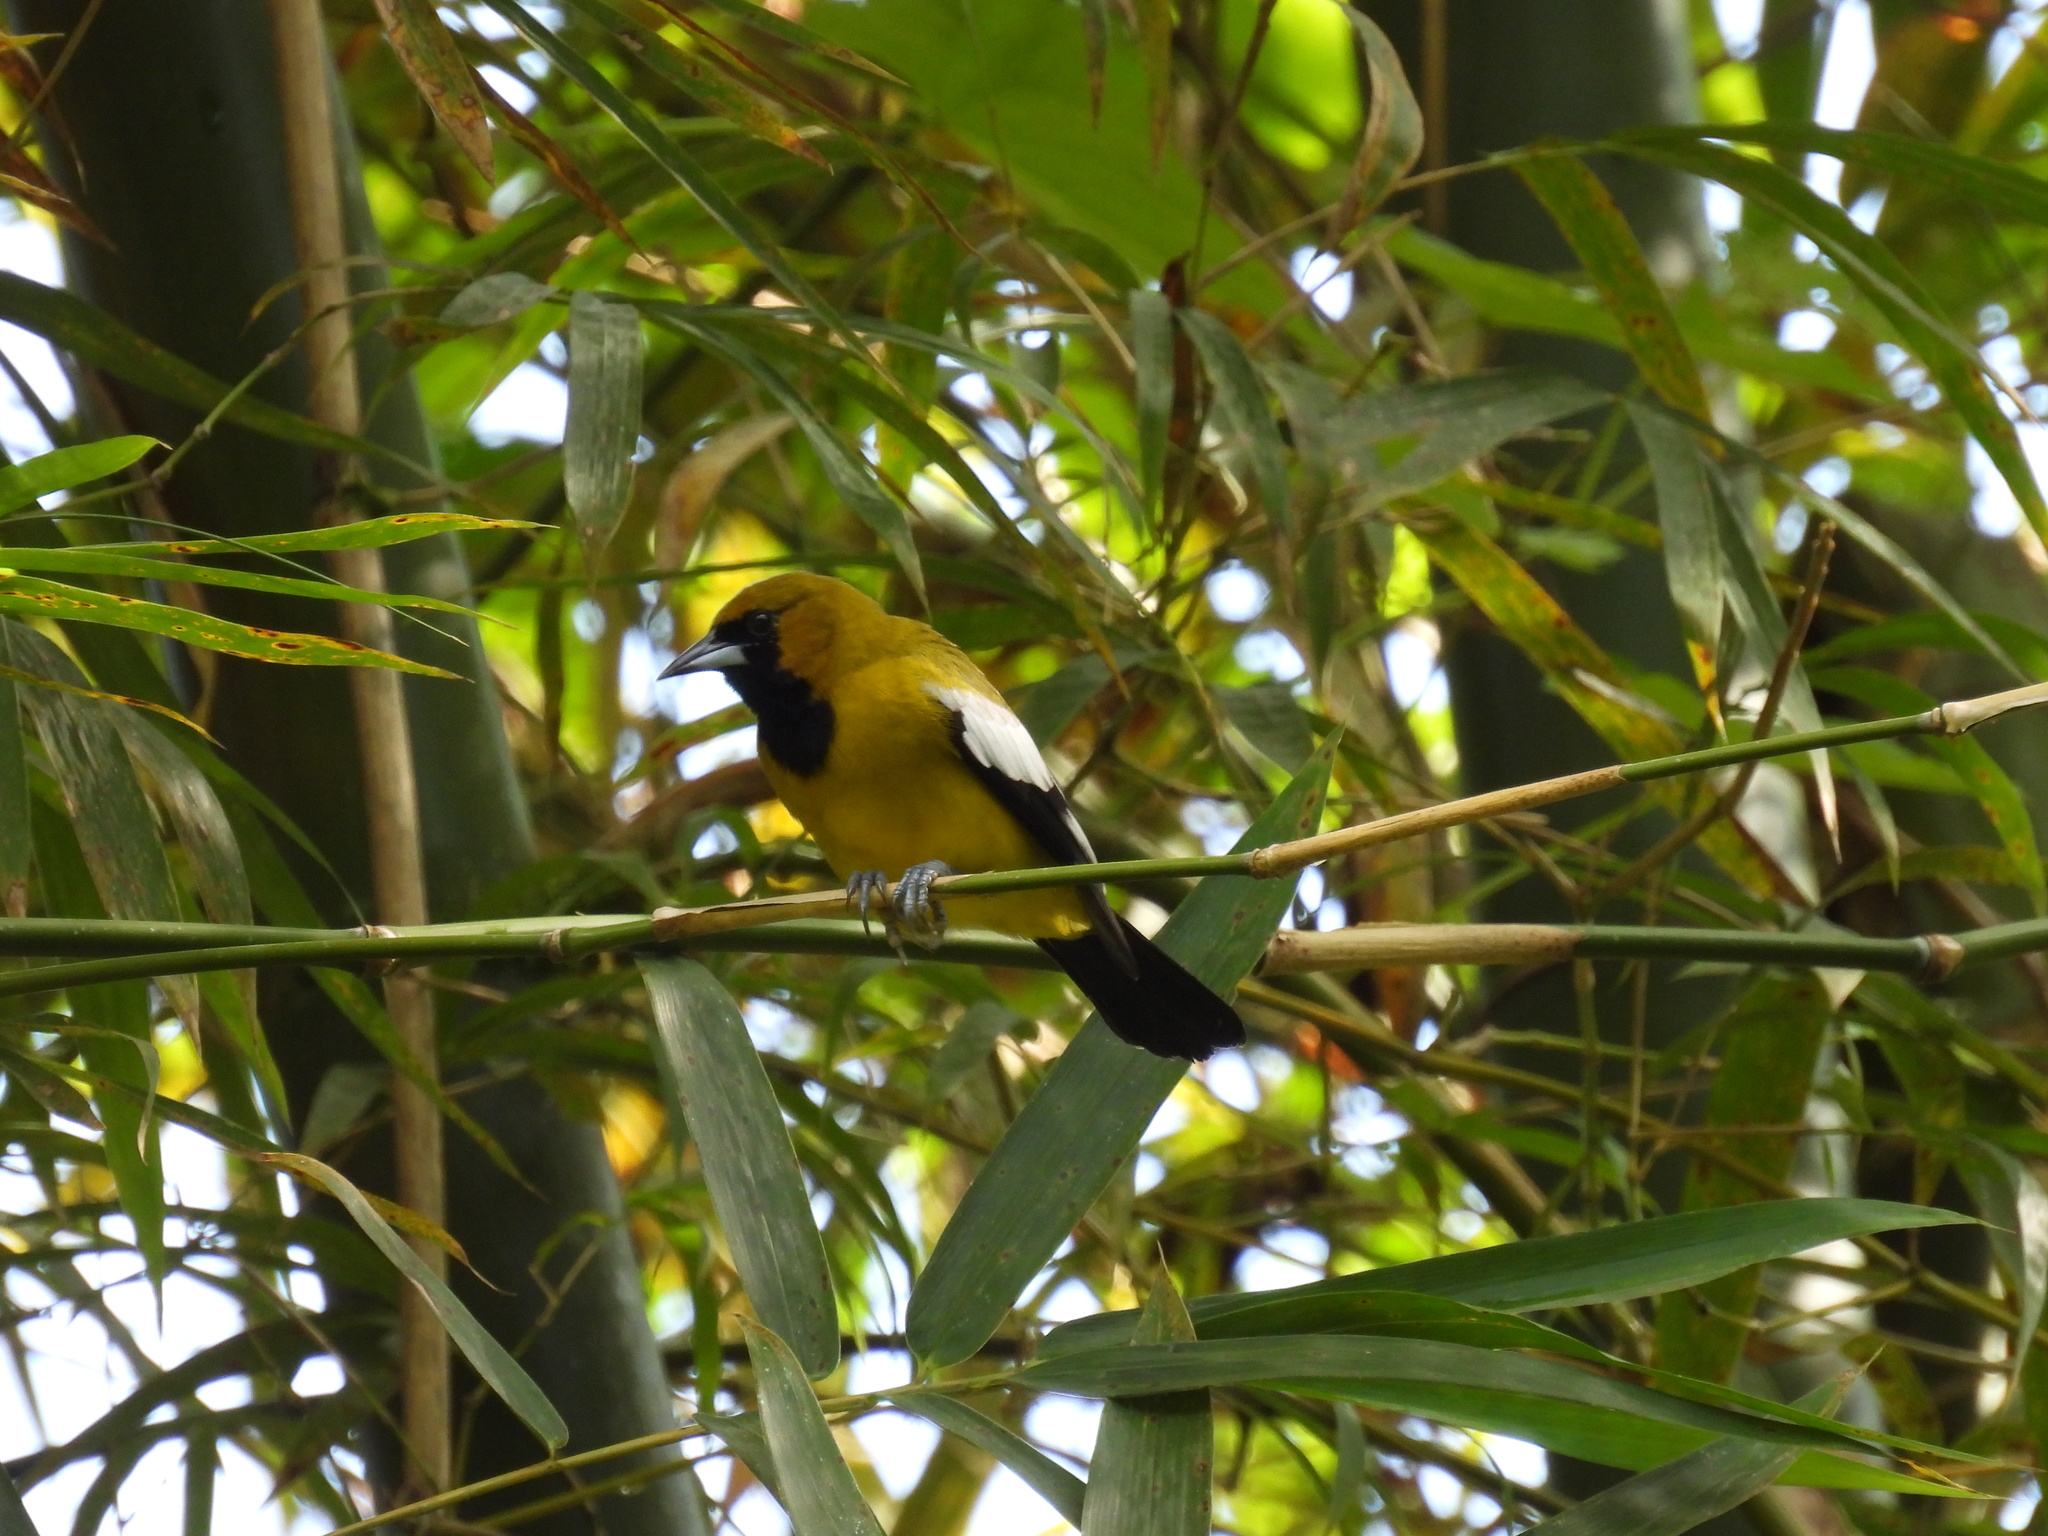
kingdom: Animalia
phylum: Chordata
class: Aves
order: Passeriformes
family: Icteridae
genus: Icterus
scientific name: Icterus leucopteryx
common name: Jamaican oriole
